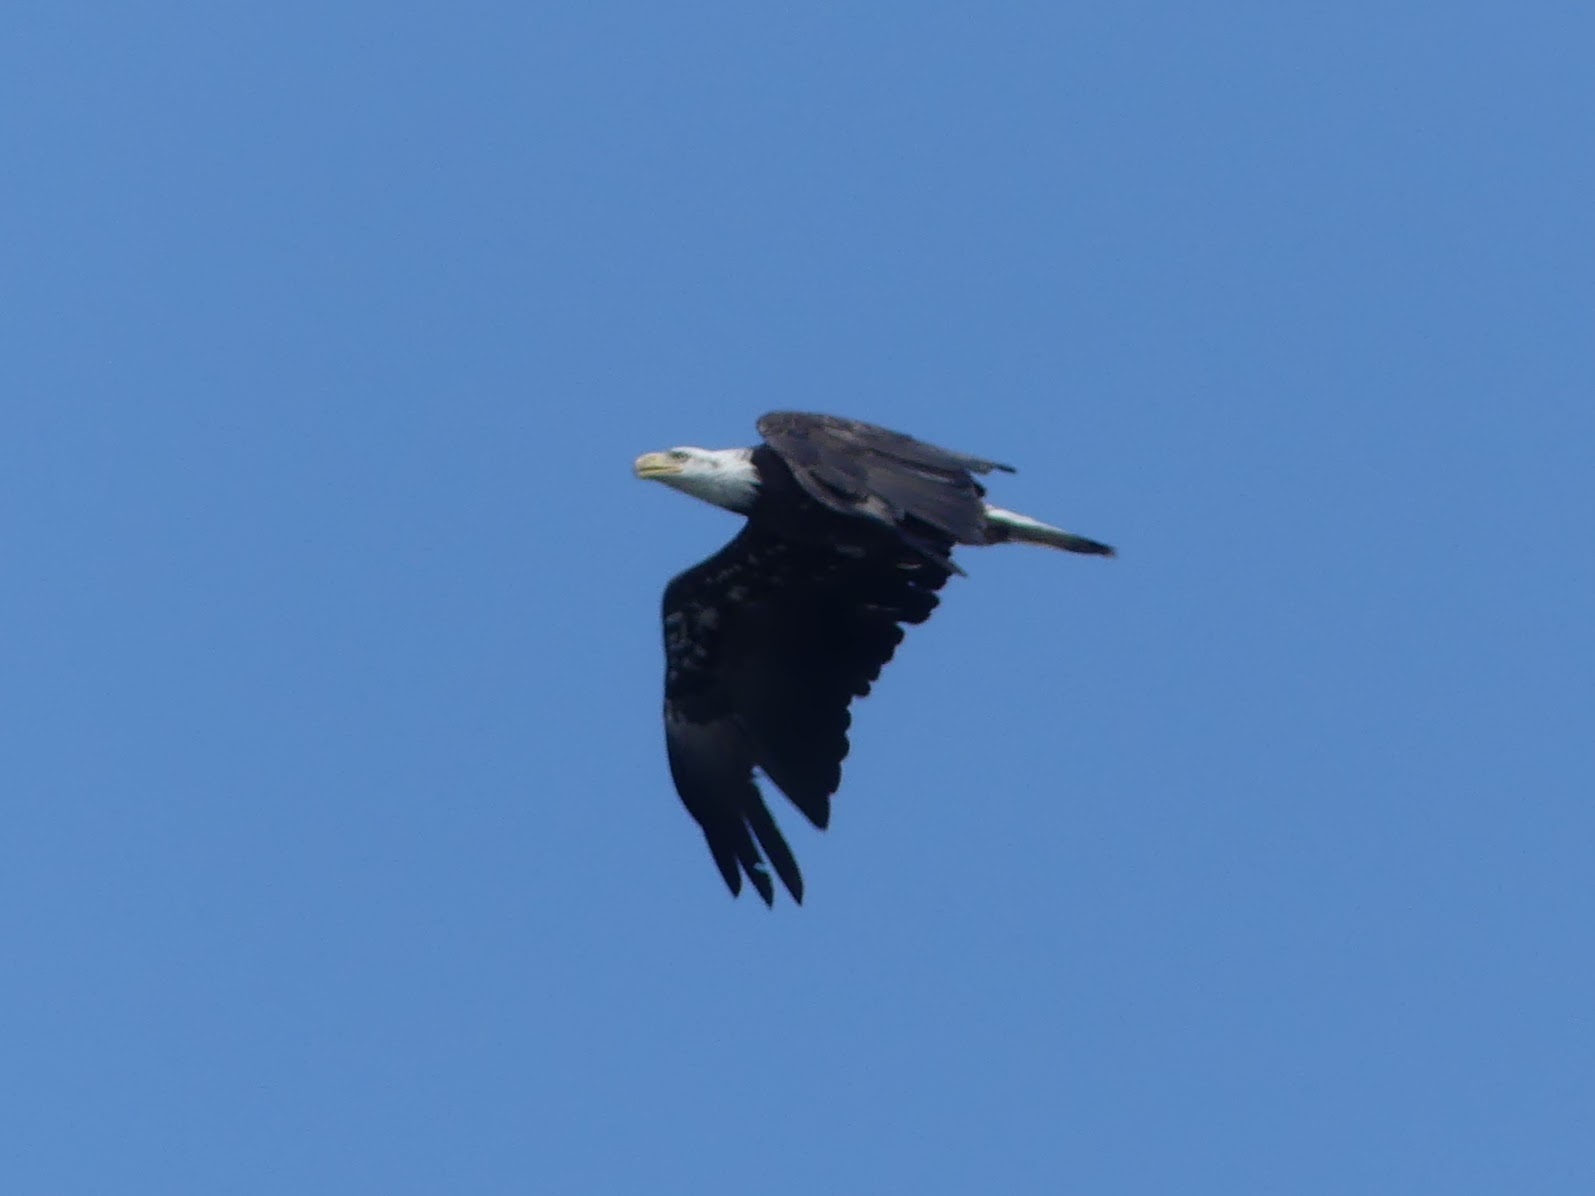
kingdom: Animalia
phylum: Chordata
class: Aves
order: Accipitriformes
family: Accipitridae
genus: Haliaeetus
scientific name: Haliaeetus leucocephalus
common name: Bald eagle
